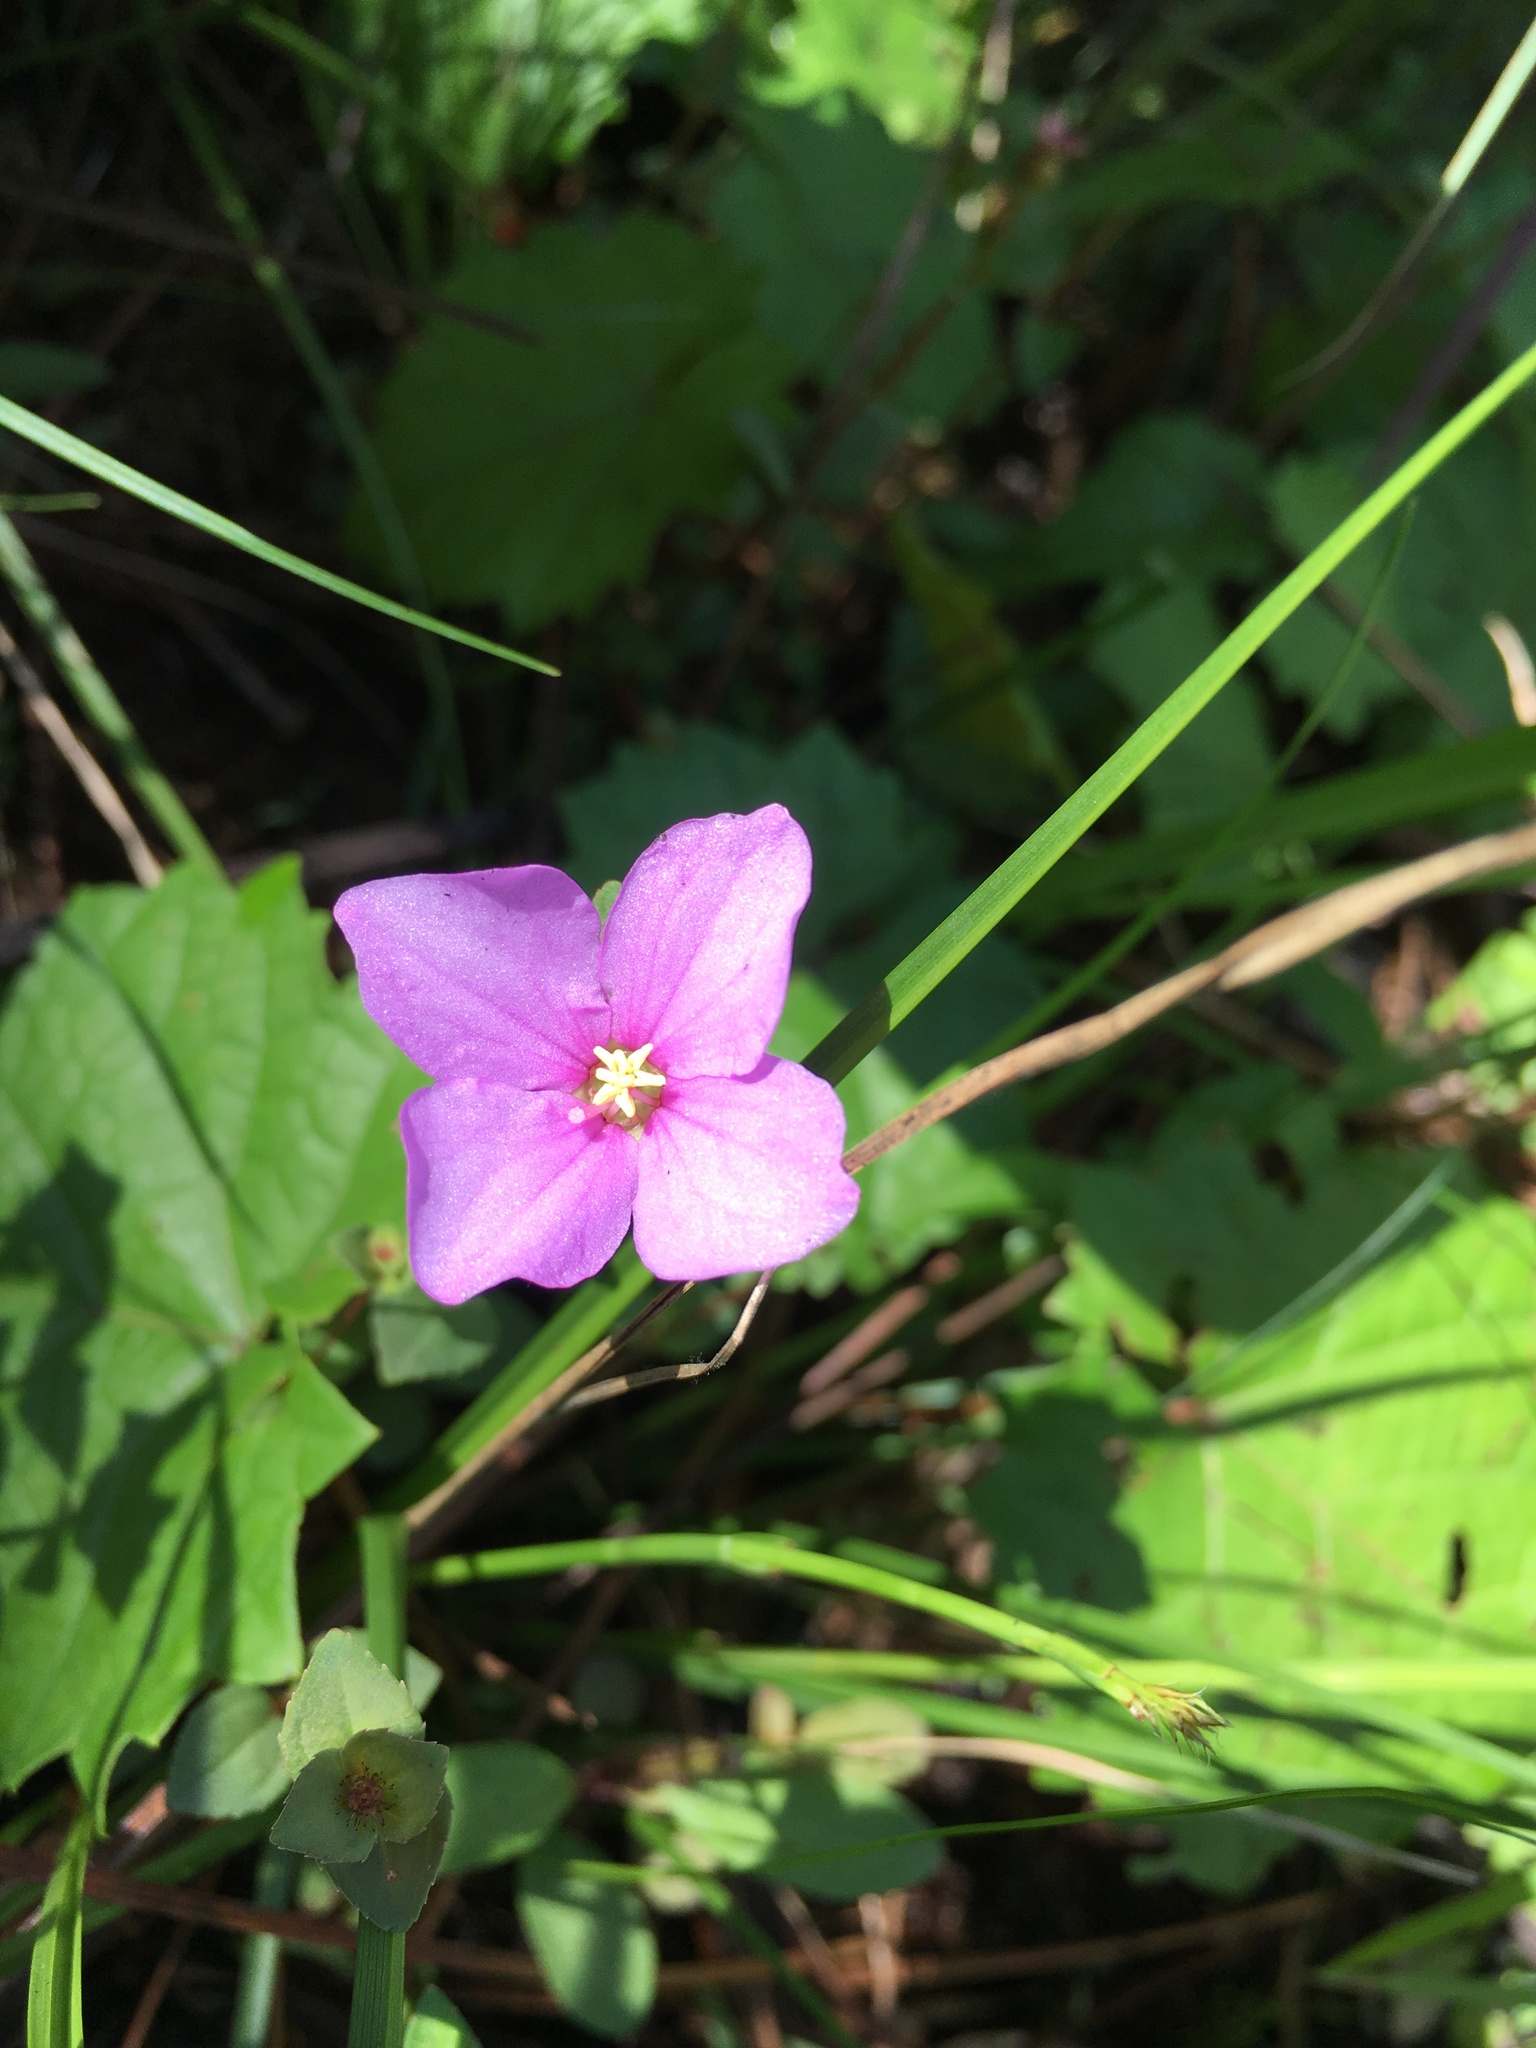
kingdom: Plantae
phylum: Tracheophyta
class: Magnoliopsida
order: Myrtales
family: Melastomataceae
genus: Rhexia
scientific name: Rhexia nuttallii
